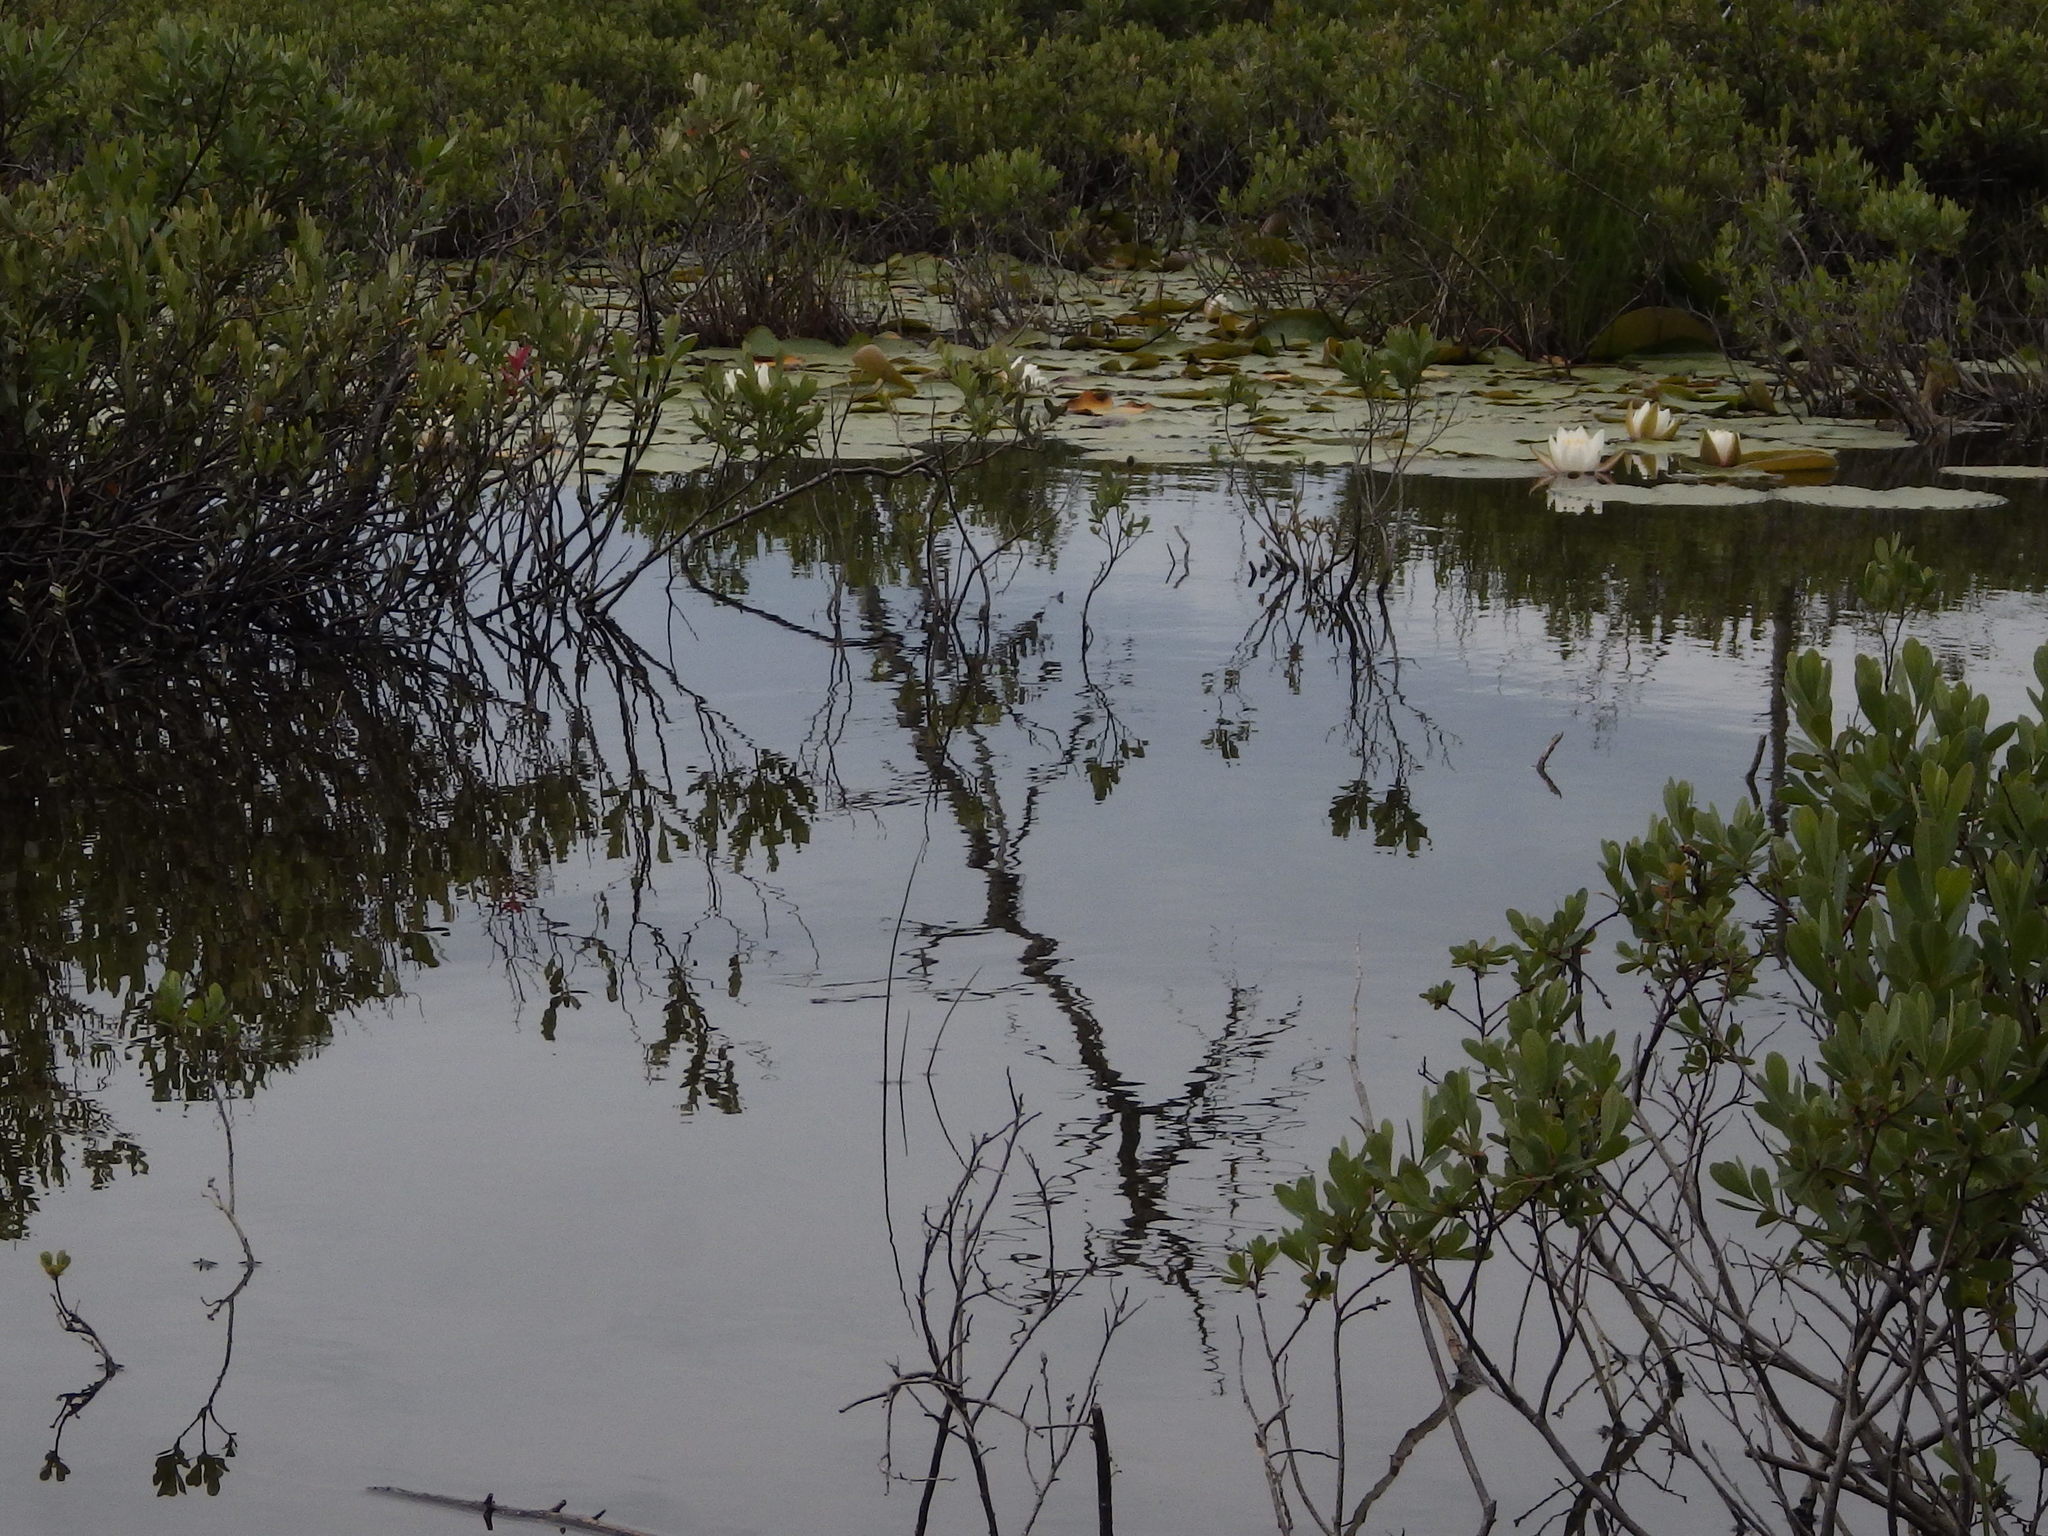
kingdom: Plantae
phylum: Tracheophyta
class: Magnoliopsida
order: Fagales
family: Myricaceae
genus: Myrica
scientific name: Myrica gale
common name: Sweet gale
